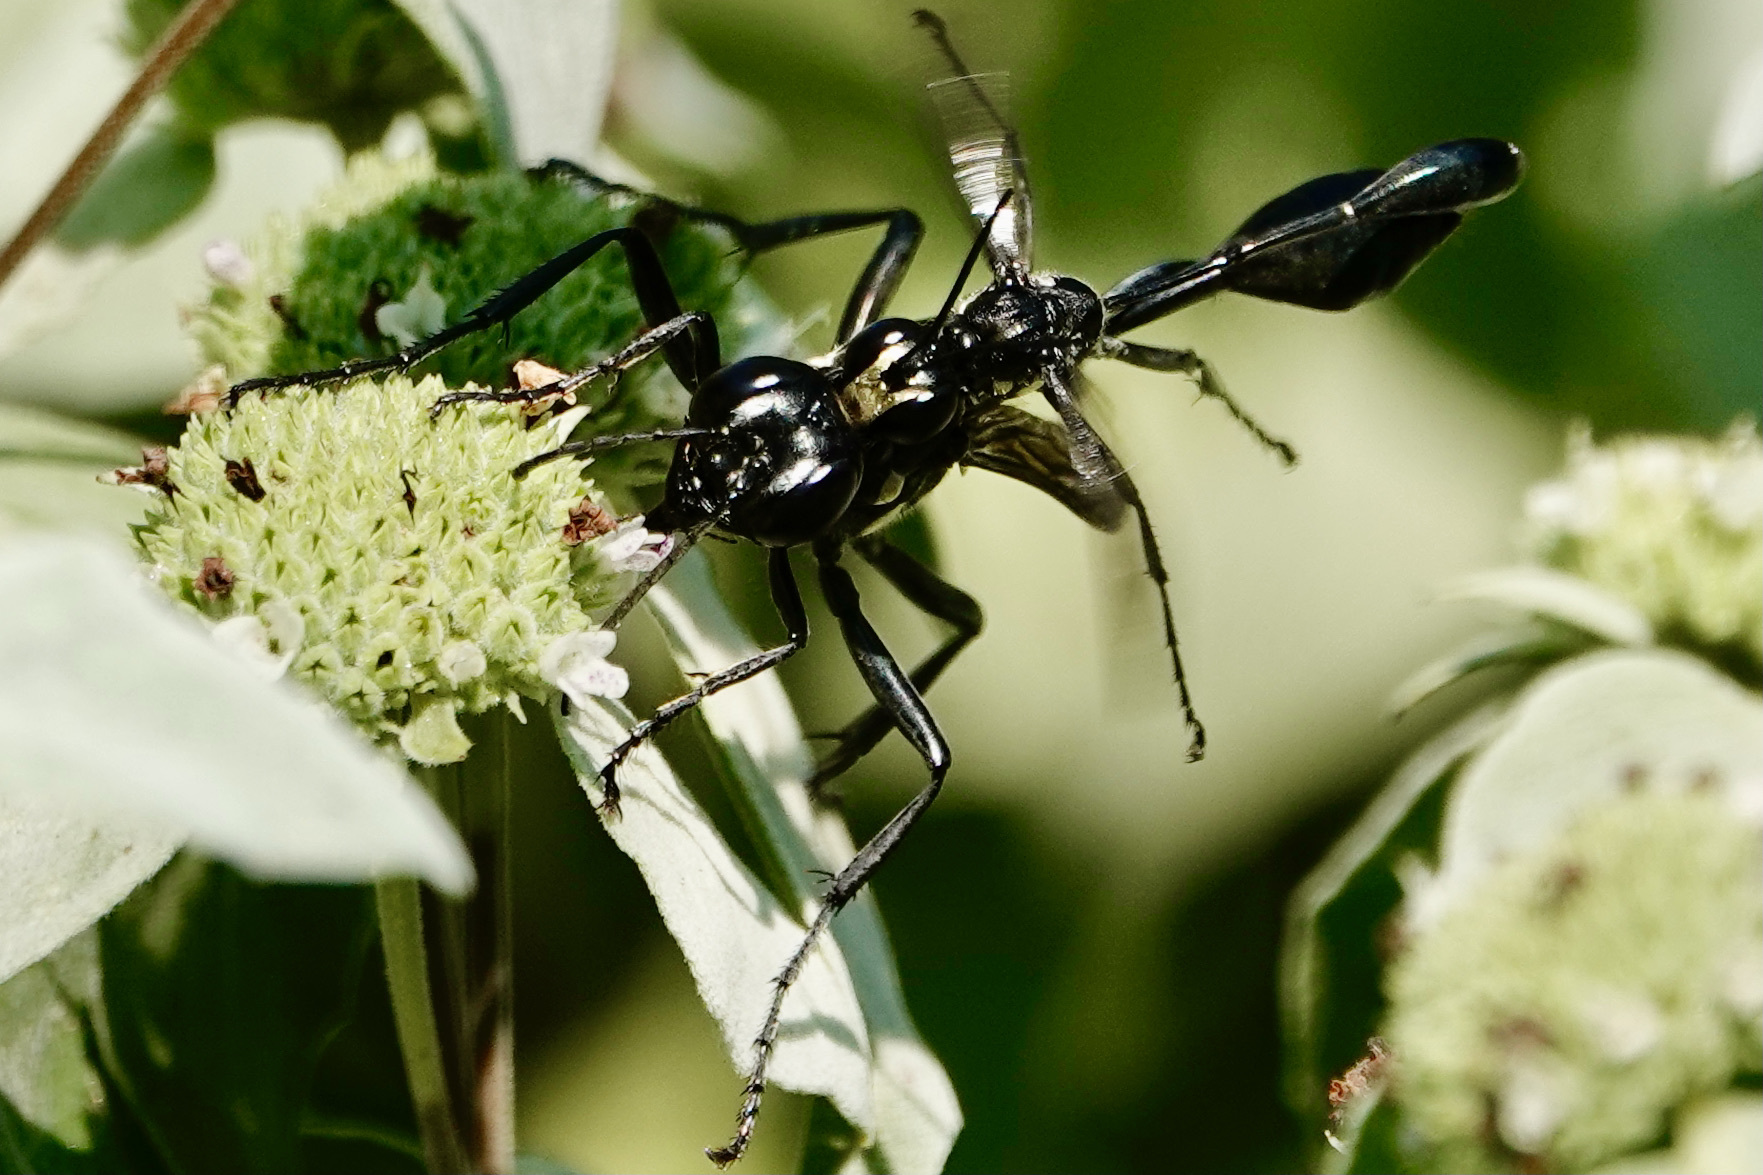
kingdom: Animalia
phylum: Arthropoda
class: Insecta
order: Hymenoptera
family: Sphecidae
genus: Eremnophila
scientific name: Eremnophila aureonotata
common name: Gold-marked thread-waisted wasp
